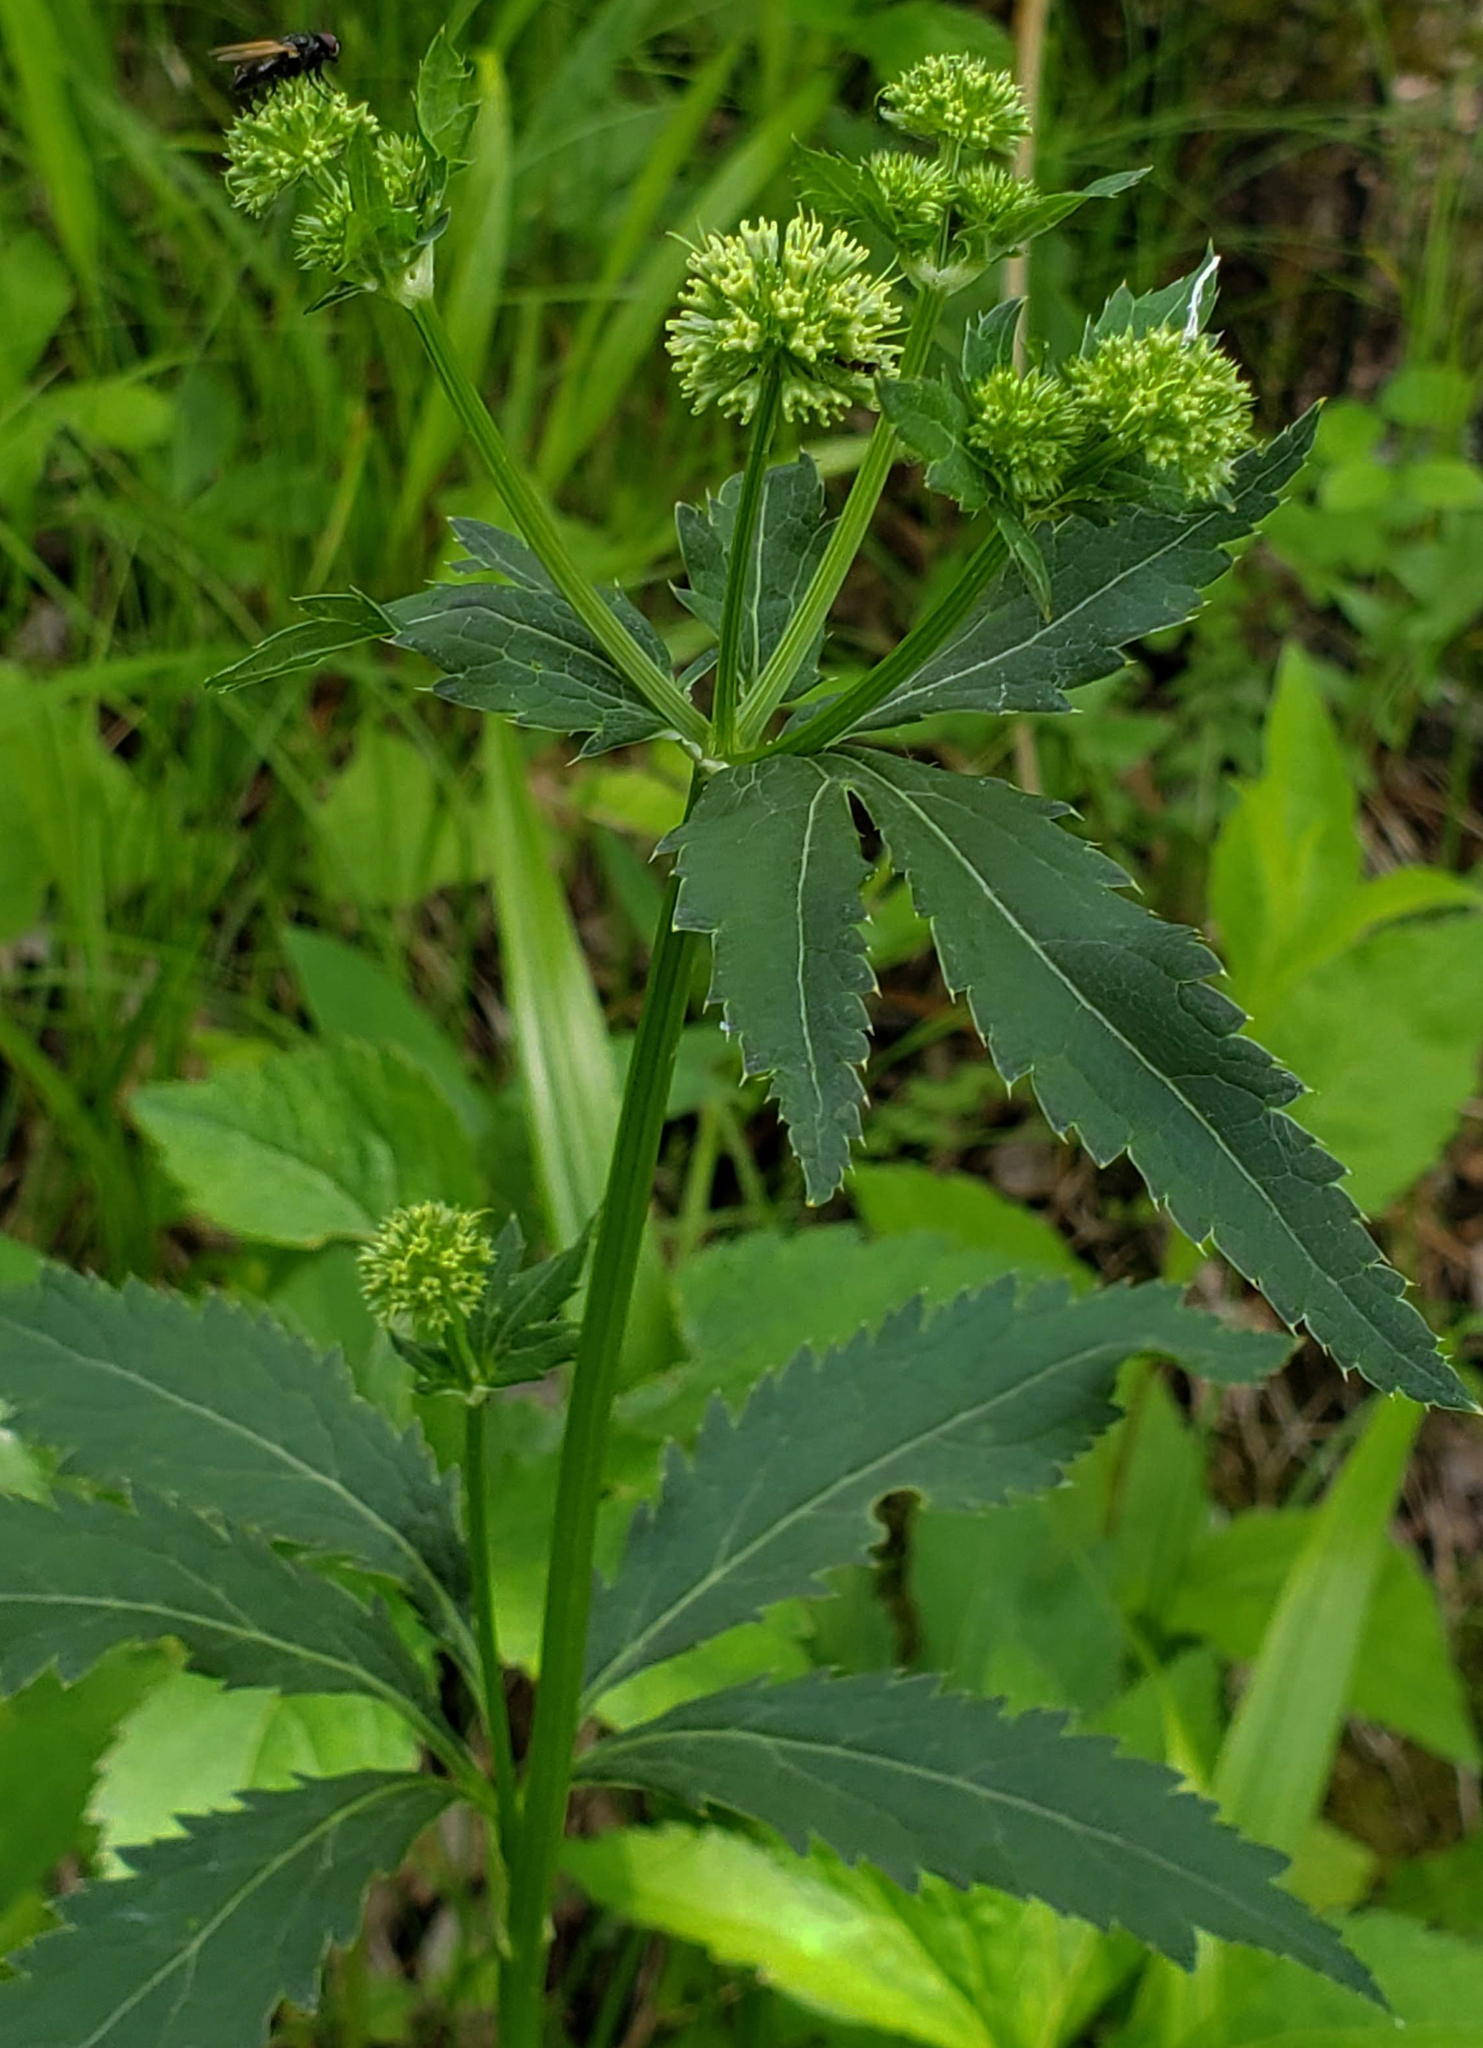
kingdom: Plantae
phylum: Tracheophyta
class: Magnoliopsida
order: Apiales
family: Apiaceae
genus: Sanicula
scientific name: Sanicula marilandica
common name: Black snakeroot
